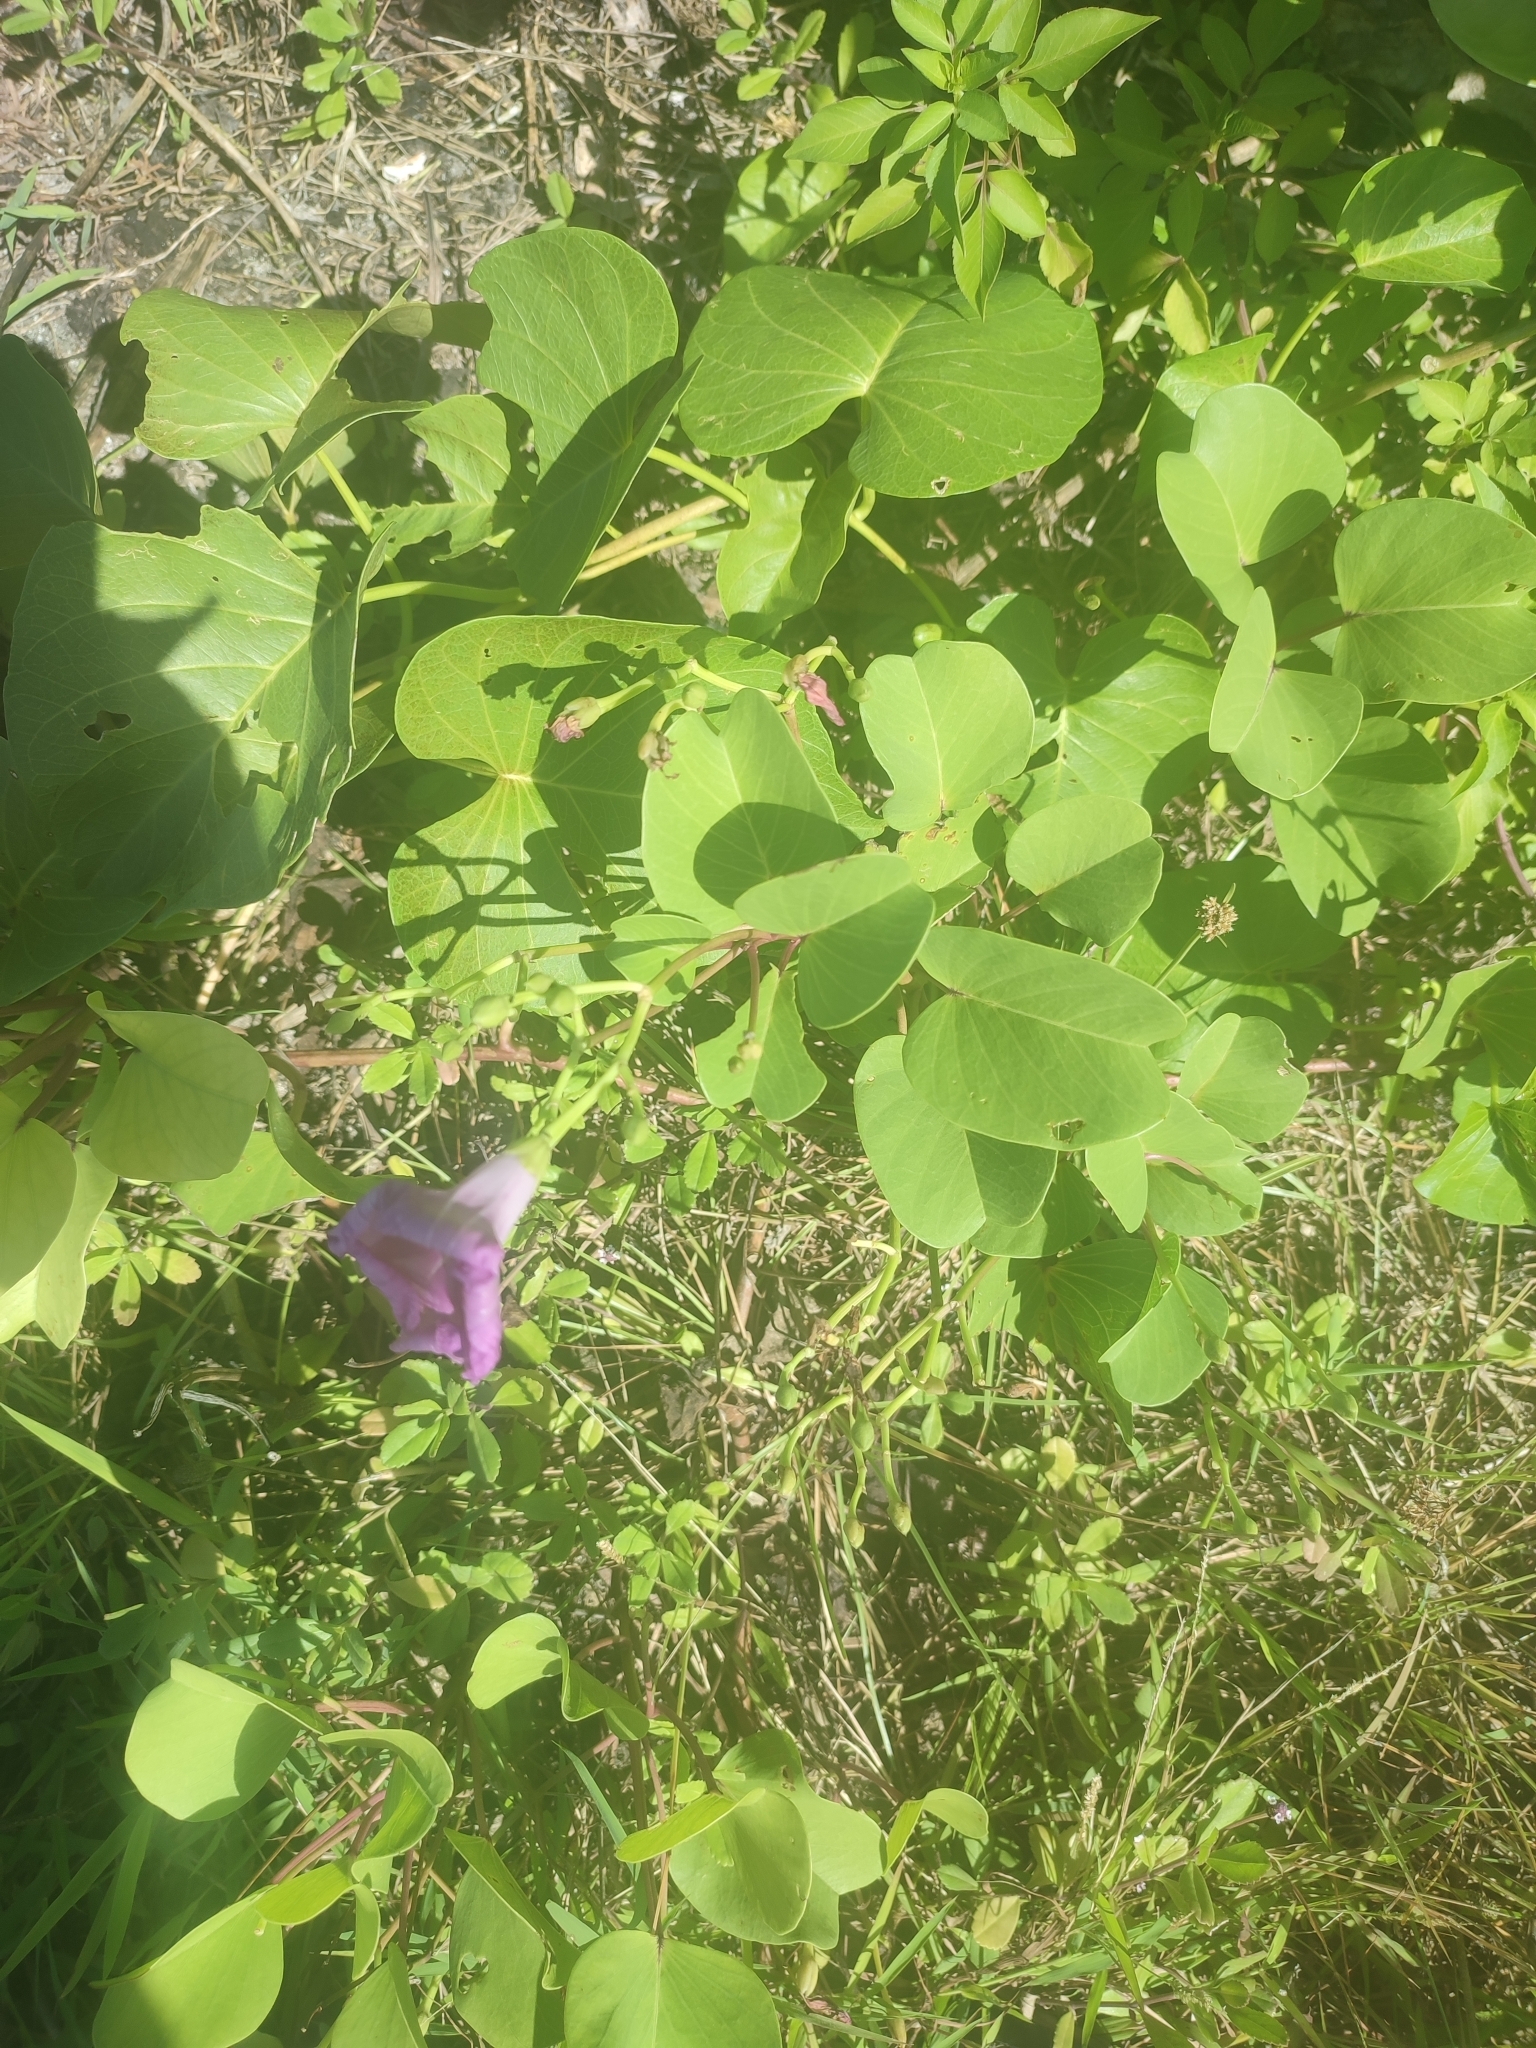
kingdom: Plantae
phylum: Tracheophyta
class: Magnoliopsida
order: Solanales
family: Convolvulaceae
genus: Ipomoea
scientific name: Ipomoea pes-caprae
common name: Beach morning glory
